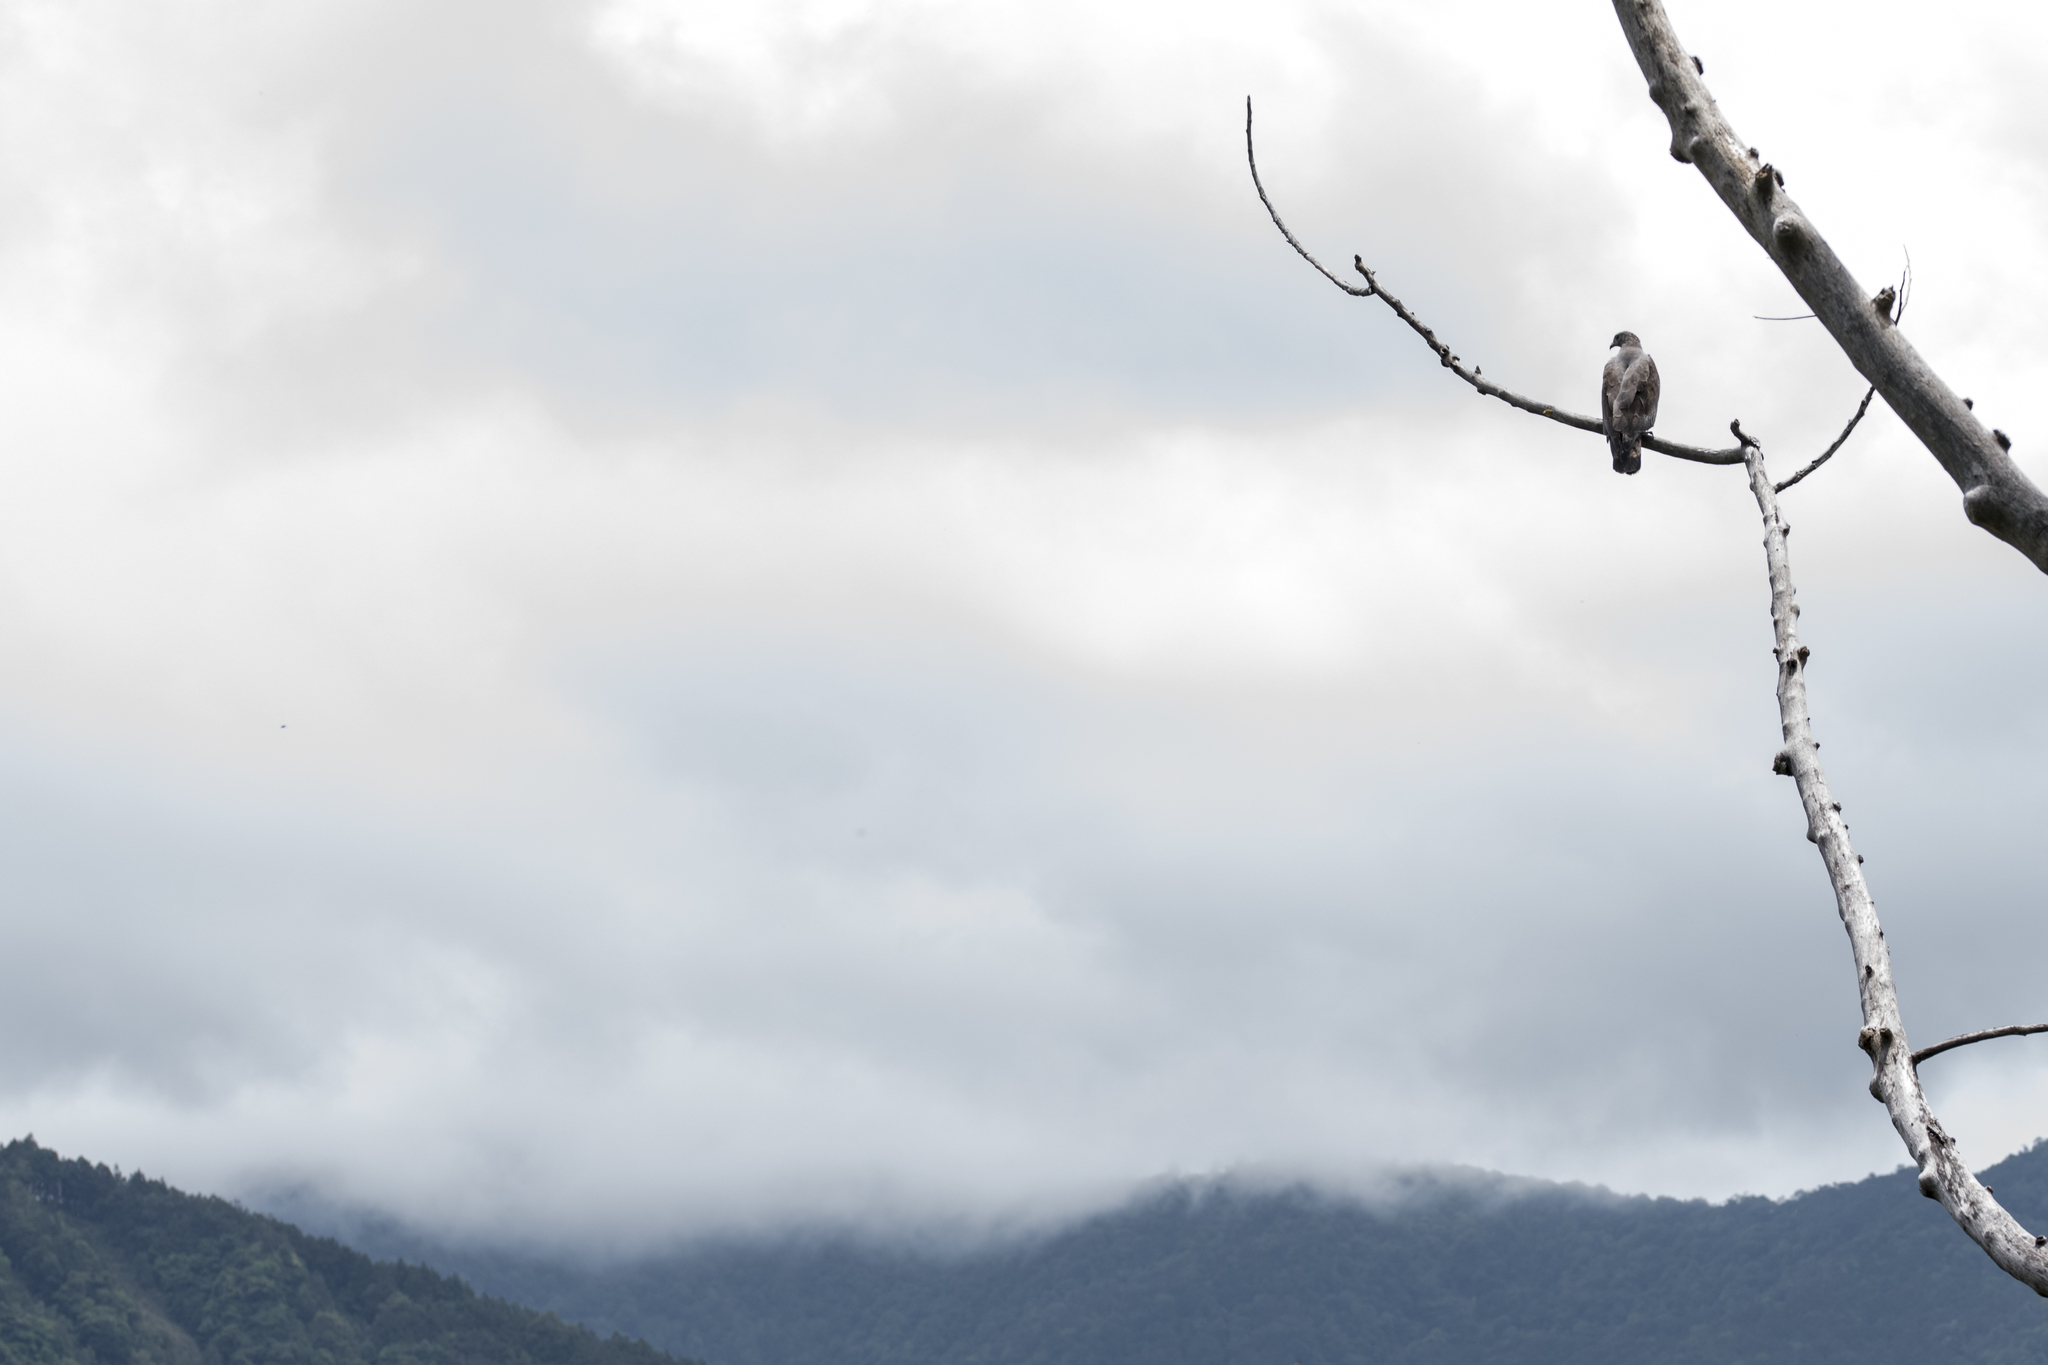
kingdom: Animalia
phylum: Chordata
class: Aves
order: Accipitriformes
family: Accipitridae
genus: Pernis
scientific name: Pernis ptilorhynchus
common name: Crested honey buzzard
